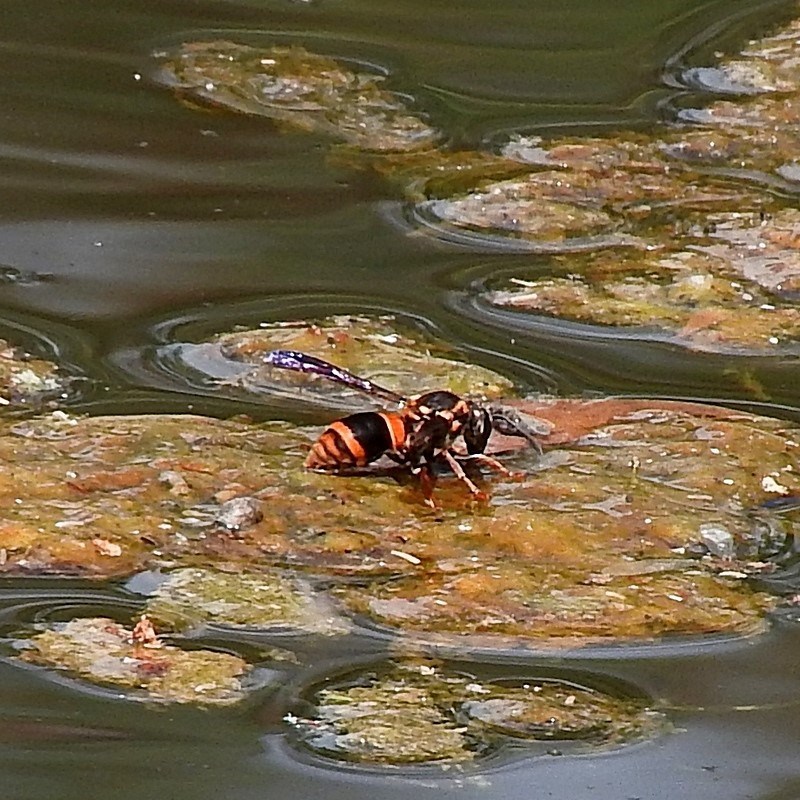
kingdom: Animalia
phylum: Arthropoda
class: Insecta
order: Hymenoptera
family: Eumenidae
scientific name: Eumenidae
